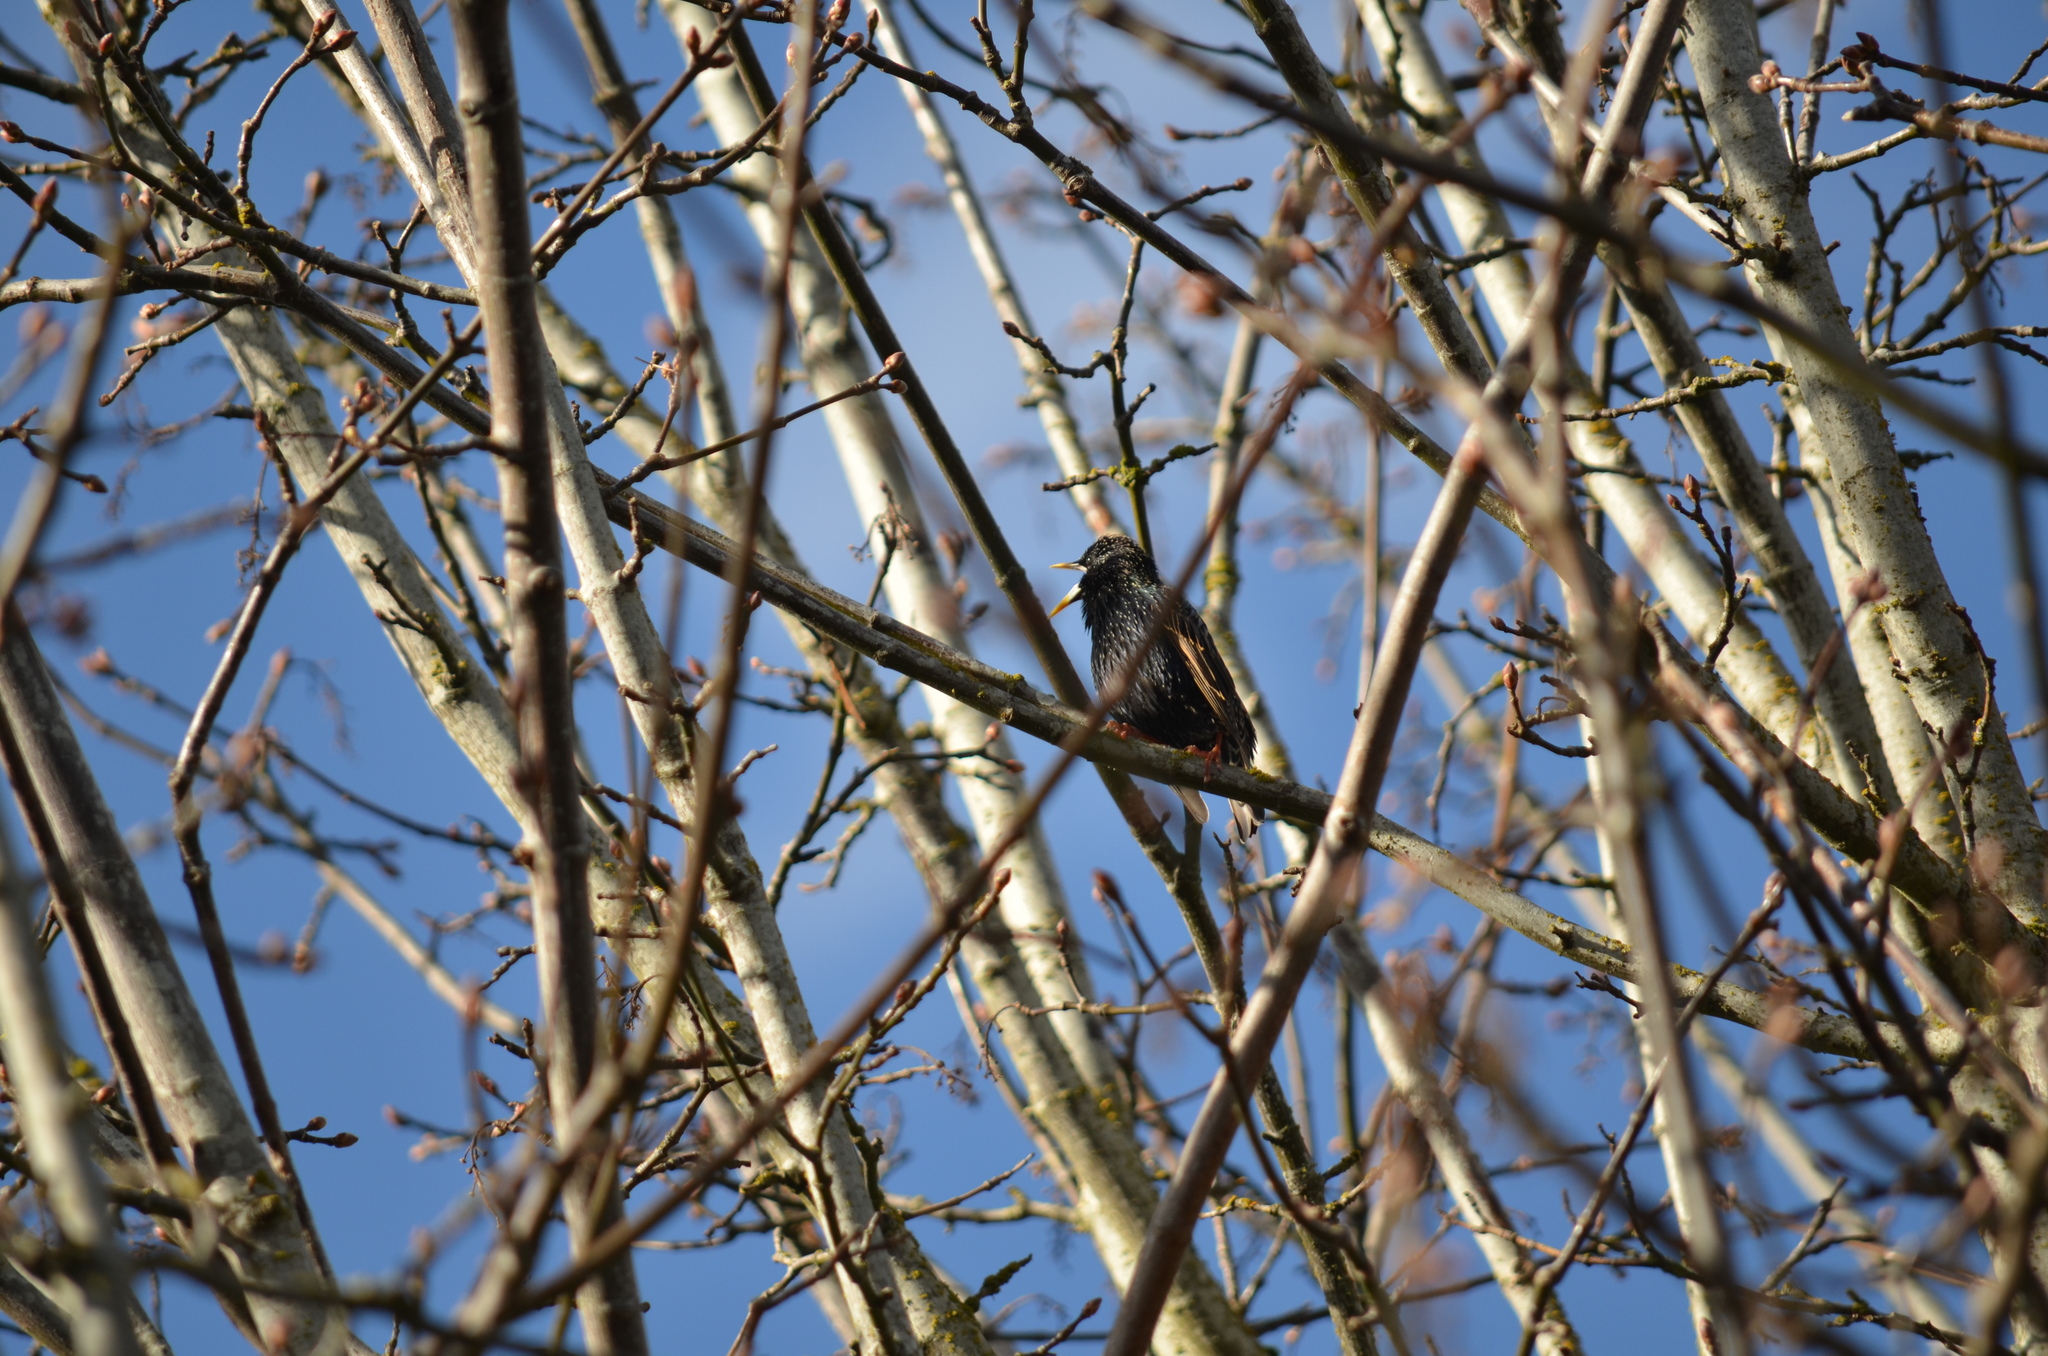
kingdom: Animalia
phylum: Chordata
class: Aves
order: Passeriformes
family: Sturnidae
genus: Sturnus
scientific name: Sturnus vulgaris
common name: Common starling
